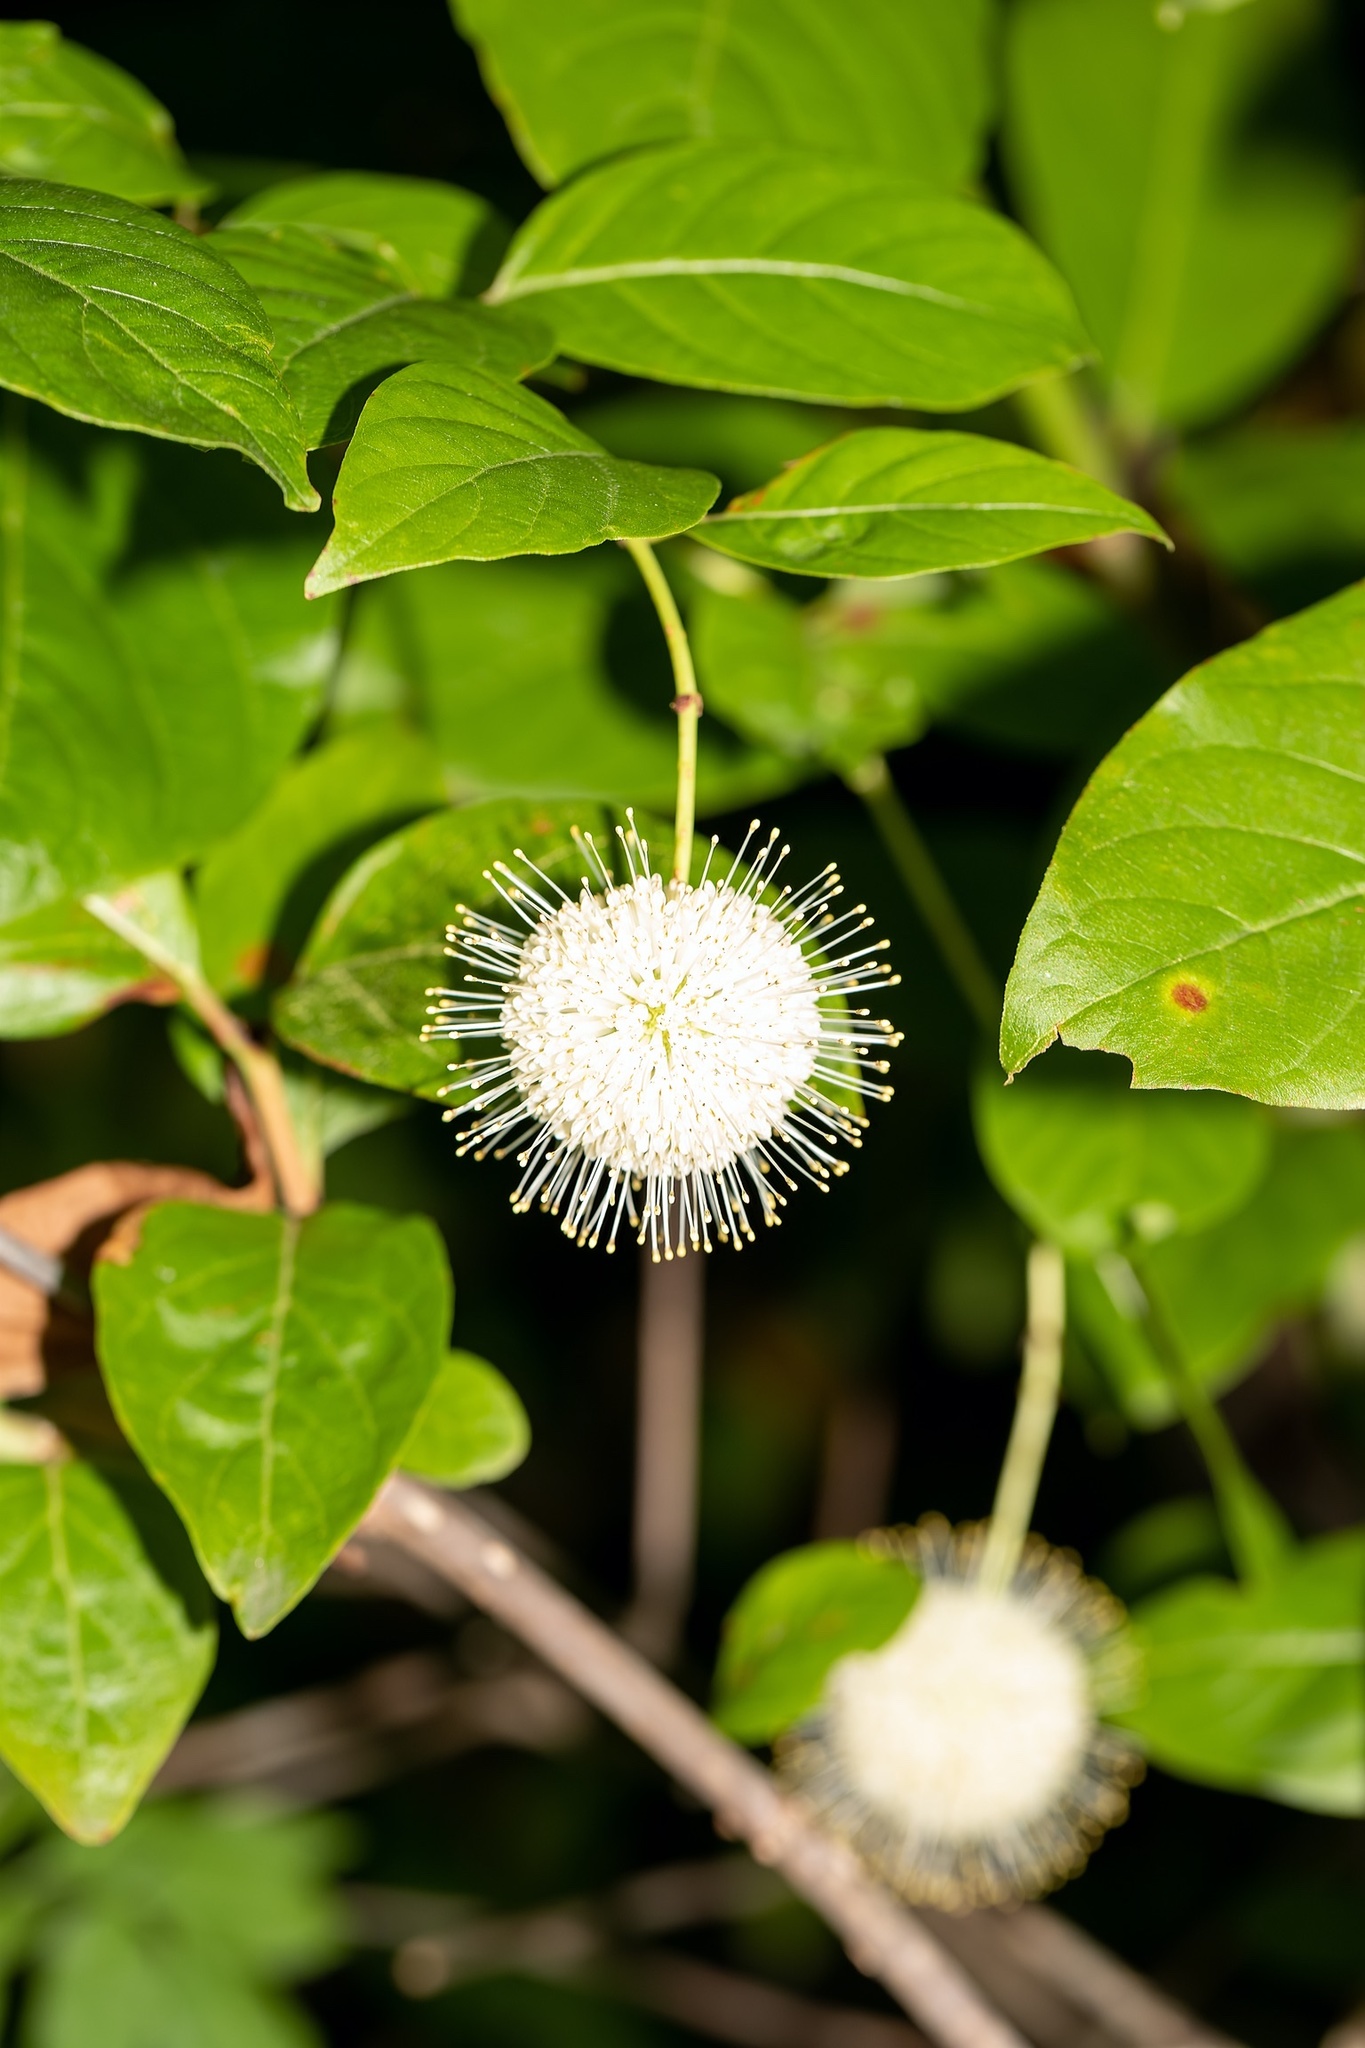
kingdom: Plantae
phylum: Tracheophyta
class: Magnoliopsida
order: Gentianales
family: Rubiaceae
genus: Cephalanthus
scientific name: Cephalanthus occidentalis
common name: Button-willow
